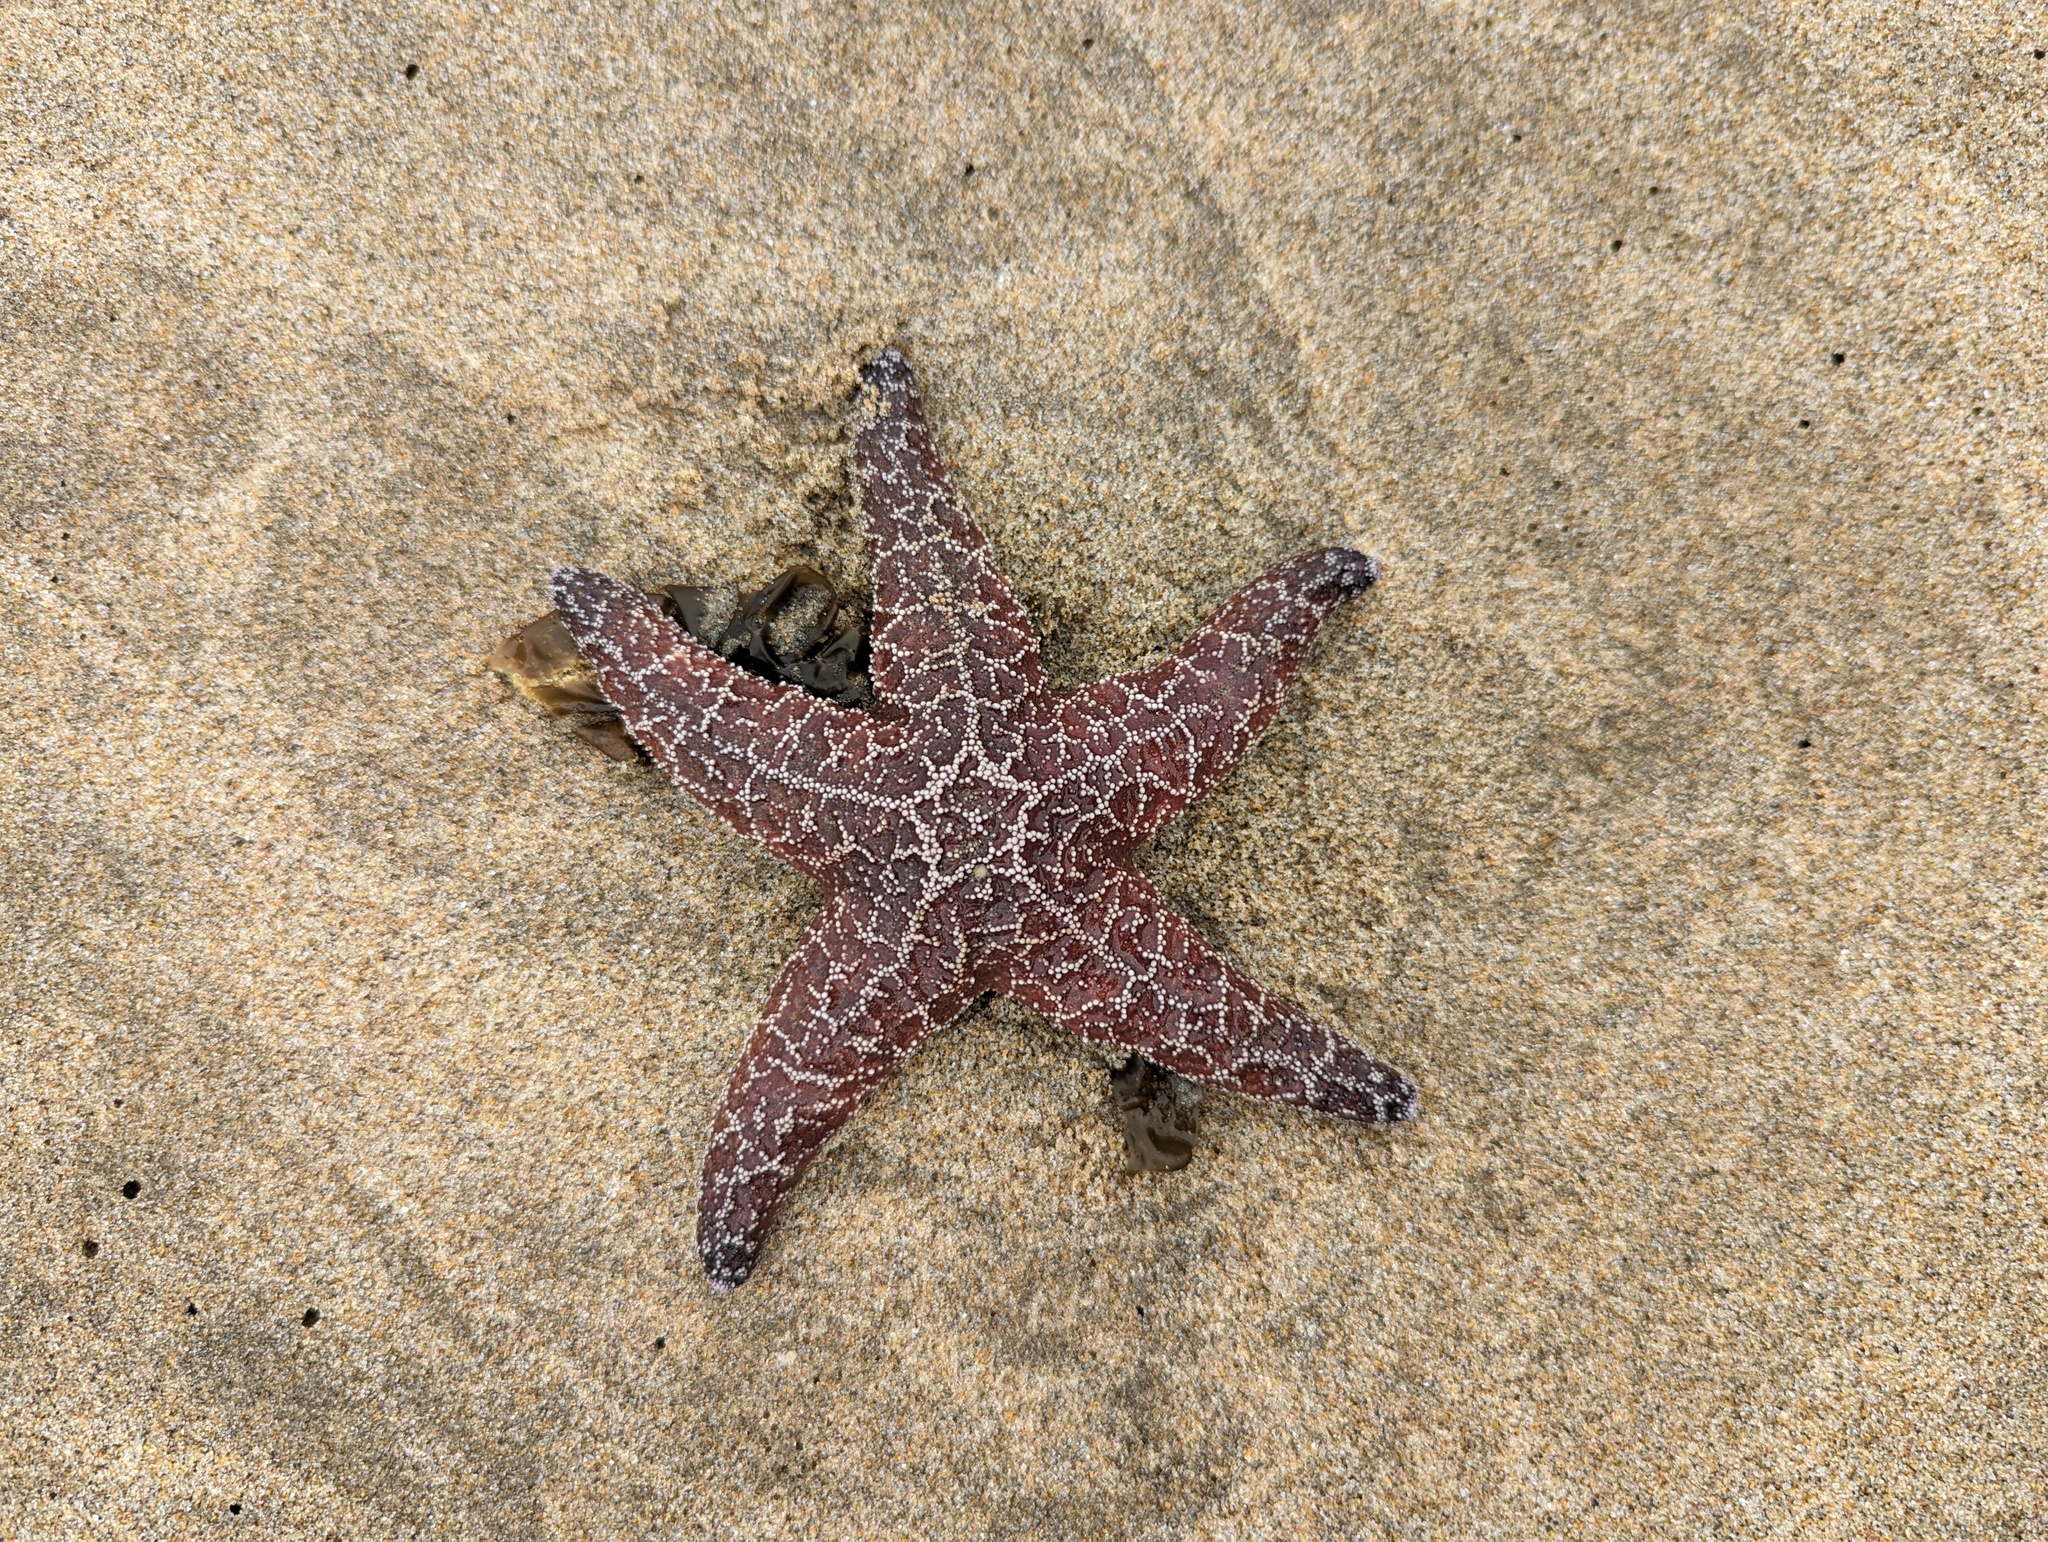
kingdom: Animalia
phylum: Echinodermata
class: Asteroidea
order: Forcipulatida
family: Asteriidae
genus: Pisaster
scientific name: Pisaster ochraceus
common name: Ochre stars
